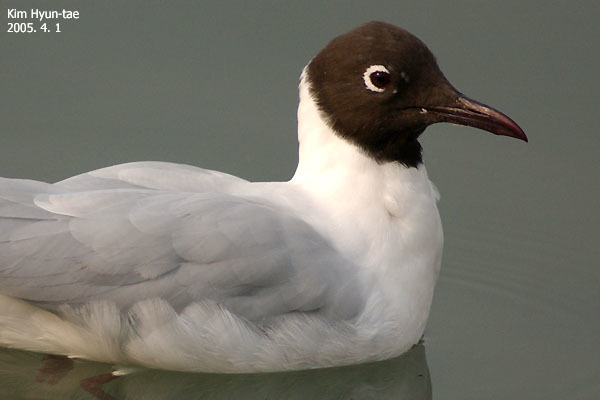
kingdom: Animalia
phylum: Chordata
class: Aves
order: Charadriiformes
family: Laridae
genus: Chroicocephalus
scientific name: Chroicocephalus ridibundus
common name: Black-headed gull
